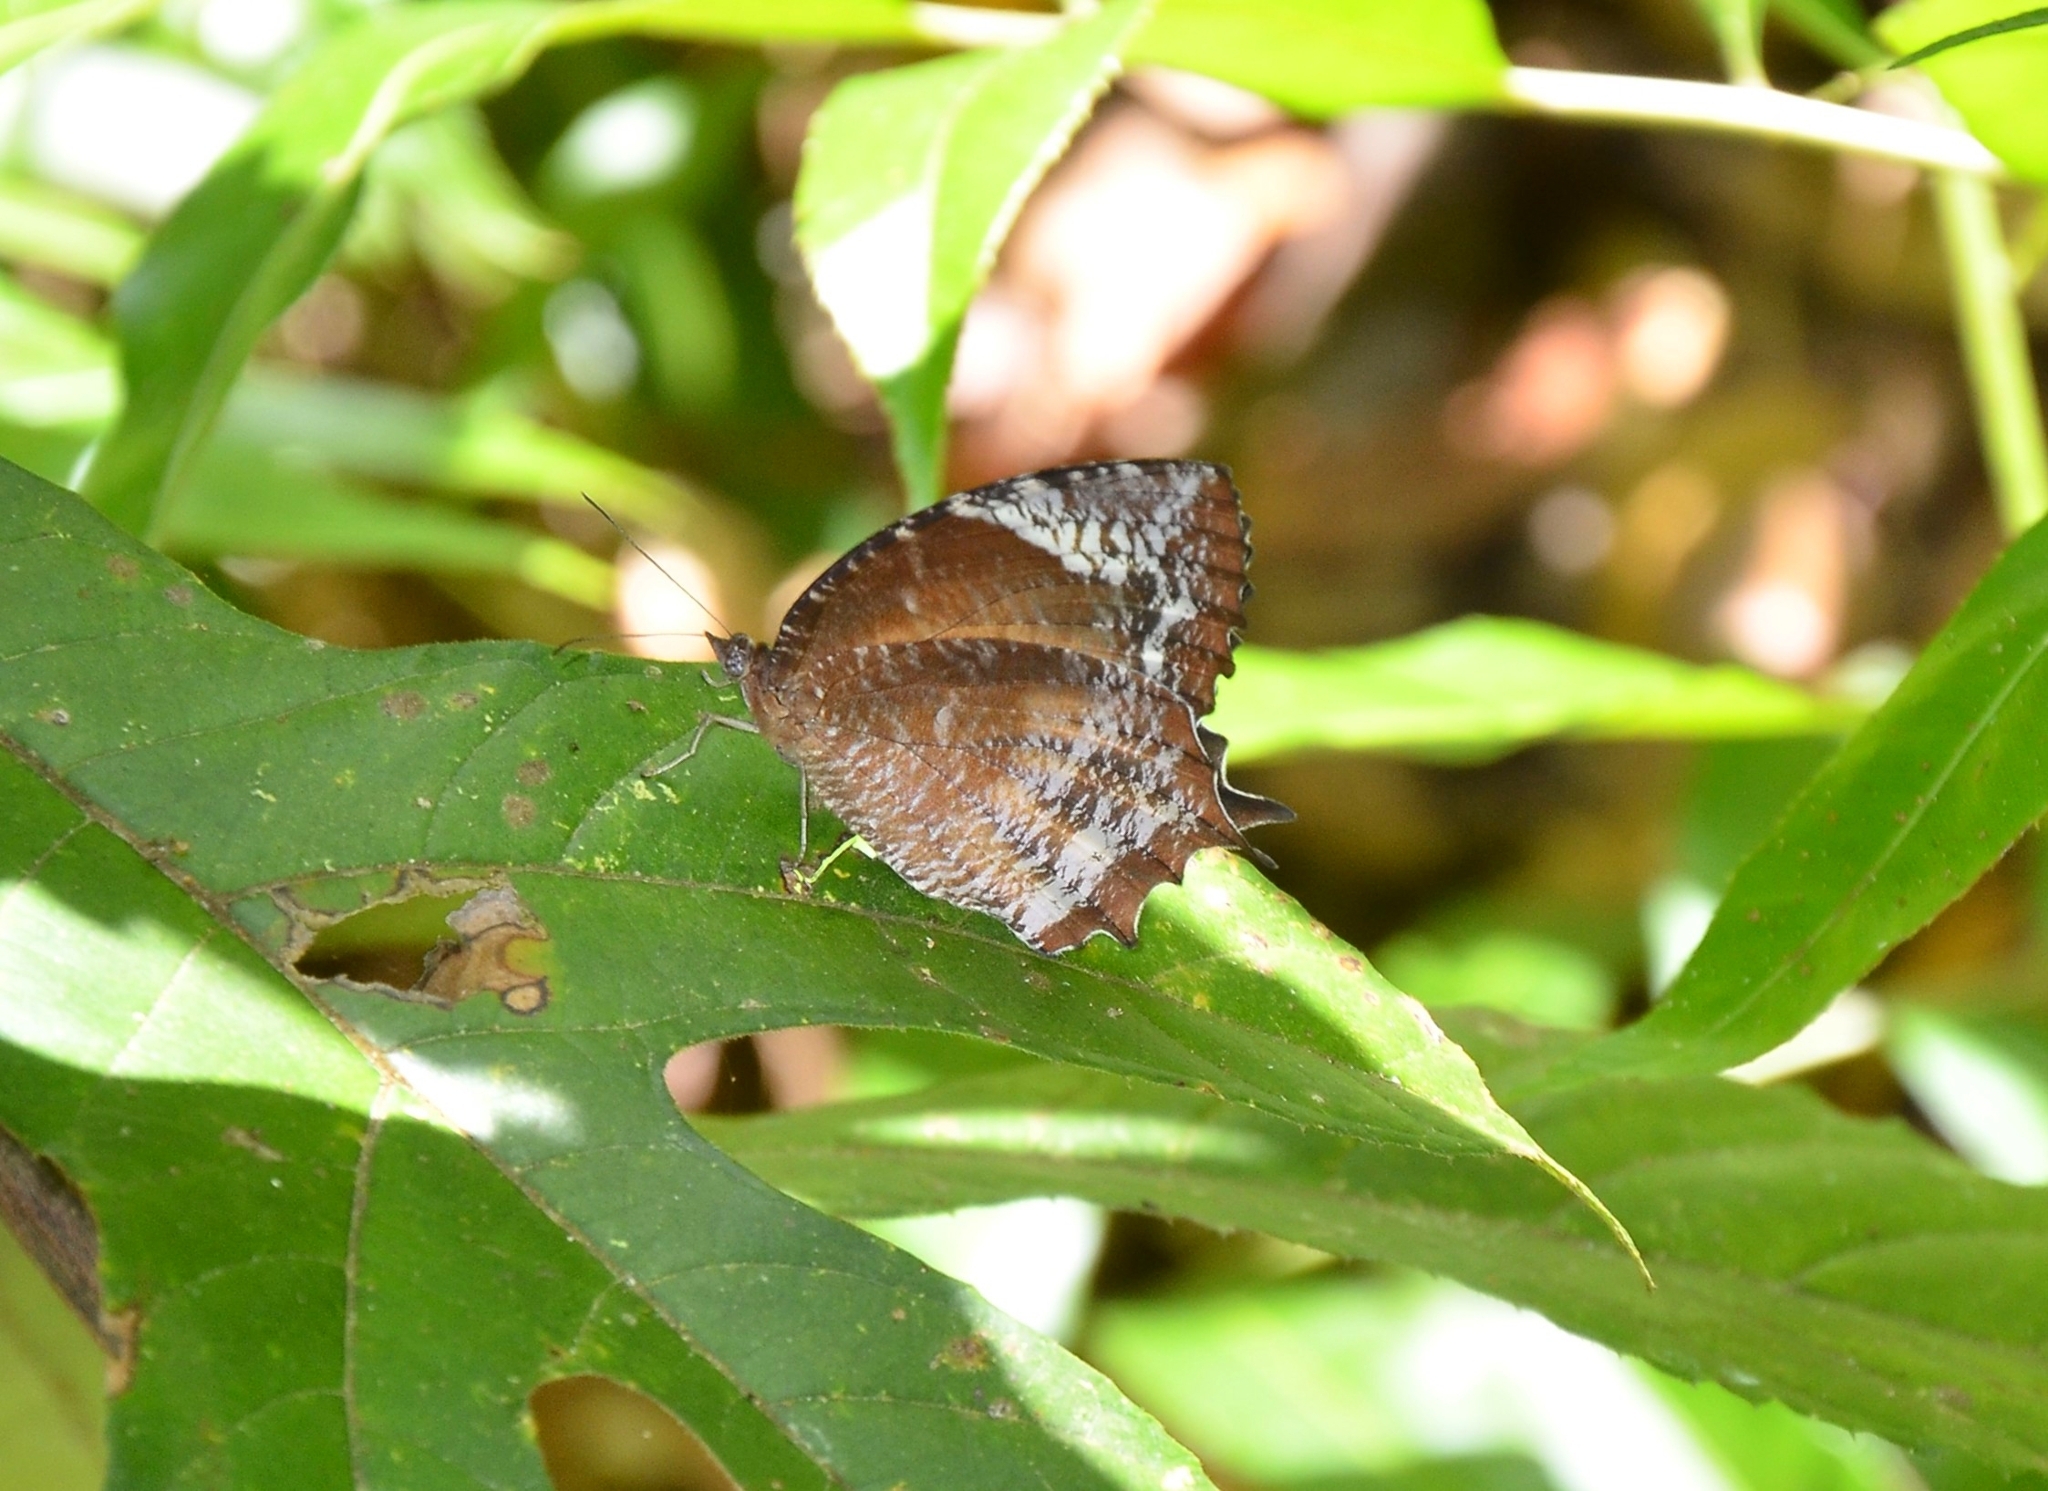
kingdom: Animalia
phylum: Arthropoda
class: Insecta
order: Lepidoptera
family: Nymphalidae
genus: Elymnias
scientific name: Elymnias caudata
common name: Tailed palmfly
